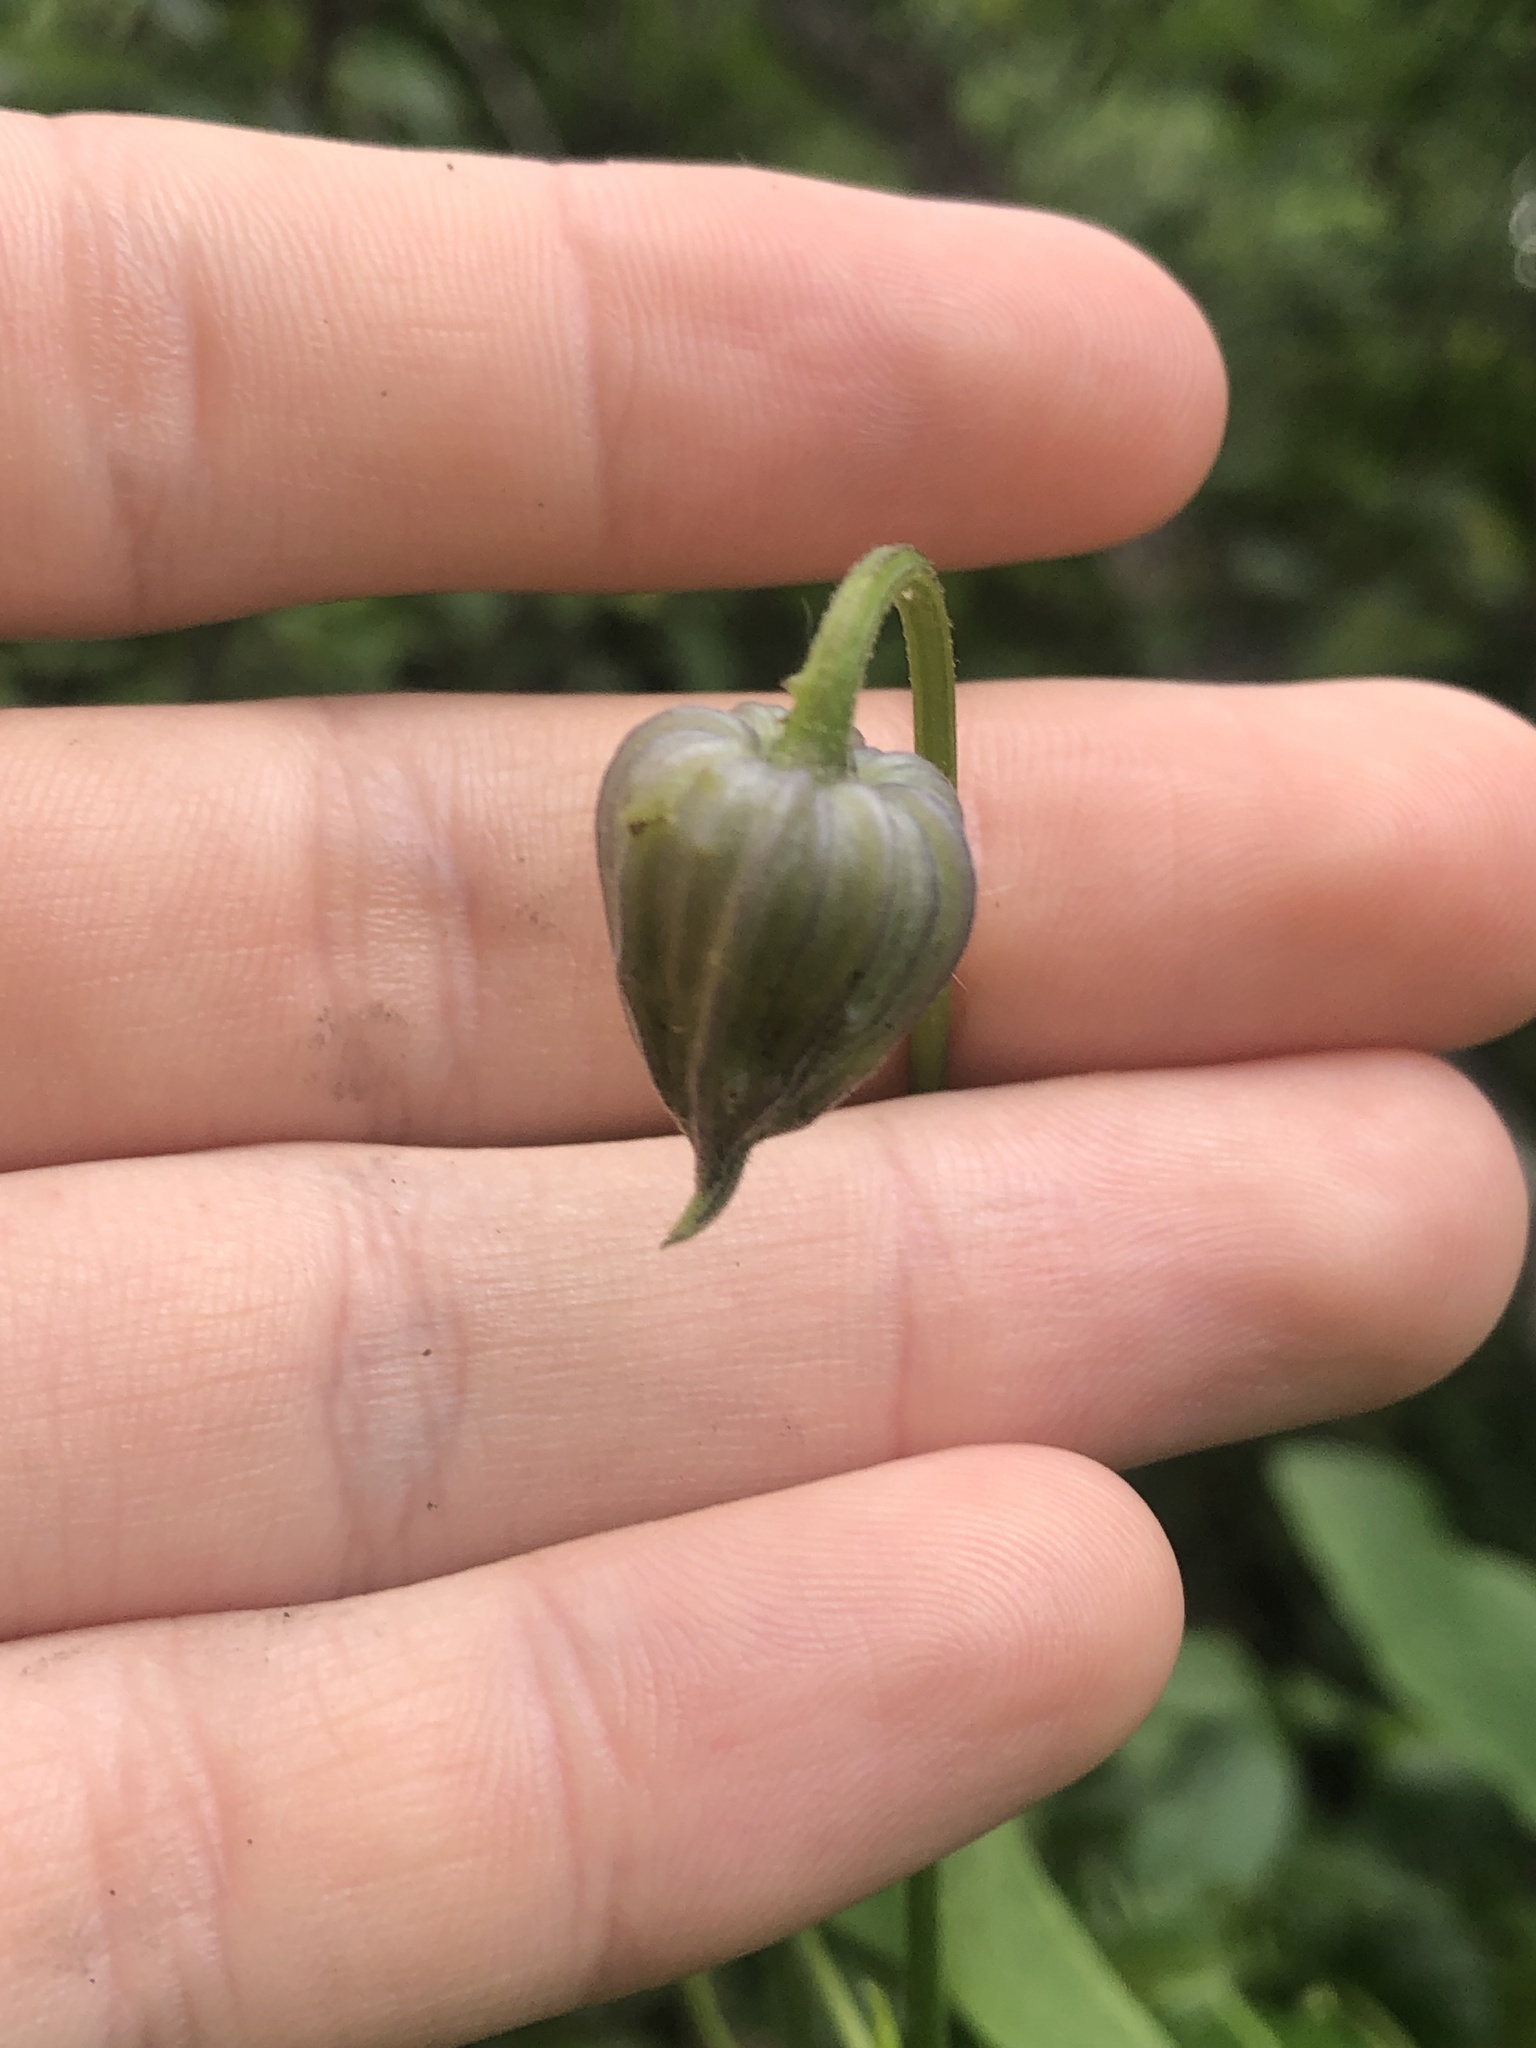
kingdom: Plantae
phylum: Tracheophyta
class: Magnoliopsida
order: Ranunculales
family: Ranunculaceae
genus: Clematis
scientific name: Clematis pitcheri
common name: Bellflower clematis
